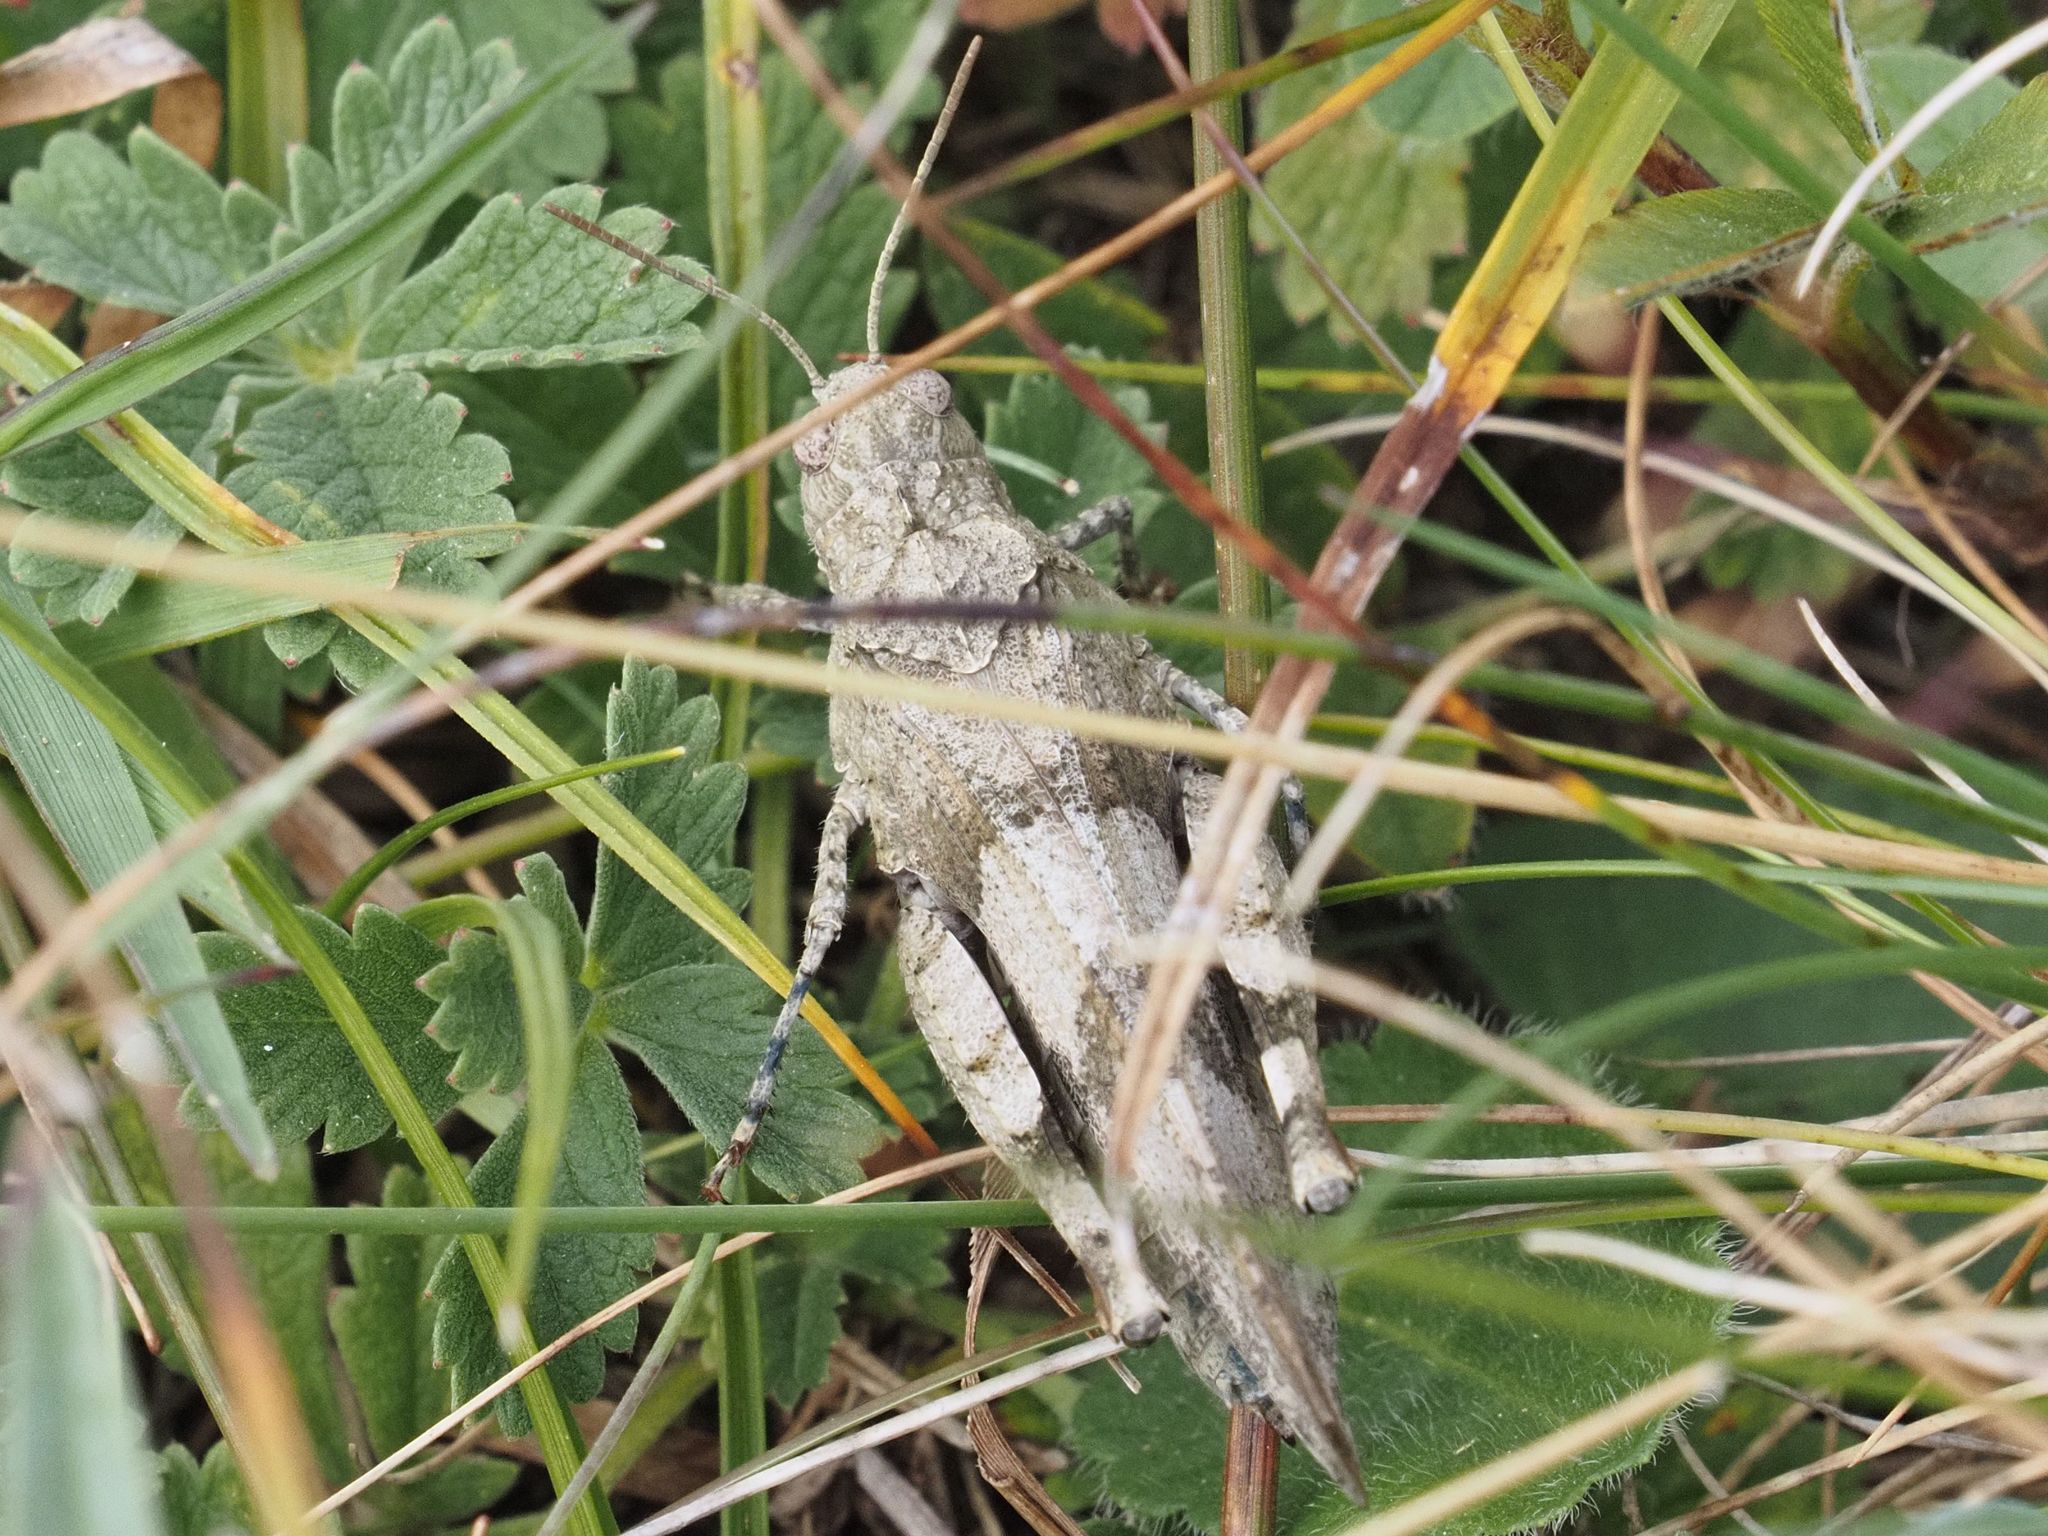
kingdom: Animalia
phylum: Arthropoda
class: Insecta
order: Orthoptera
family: Acrididae
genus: Oedipoda
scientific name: Oedipoda caerulescens
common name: Blue-winged grasshopper
